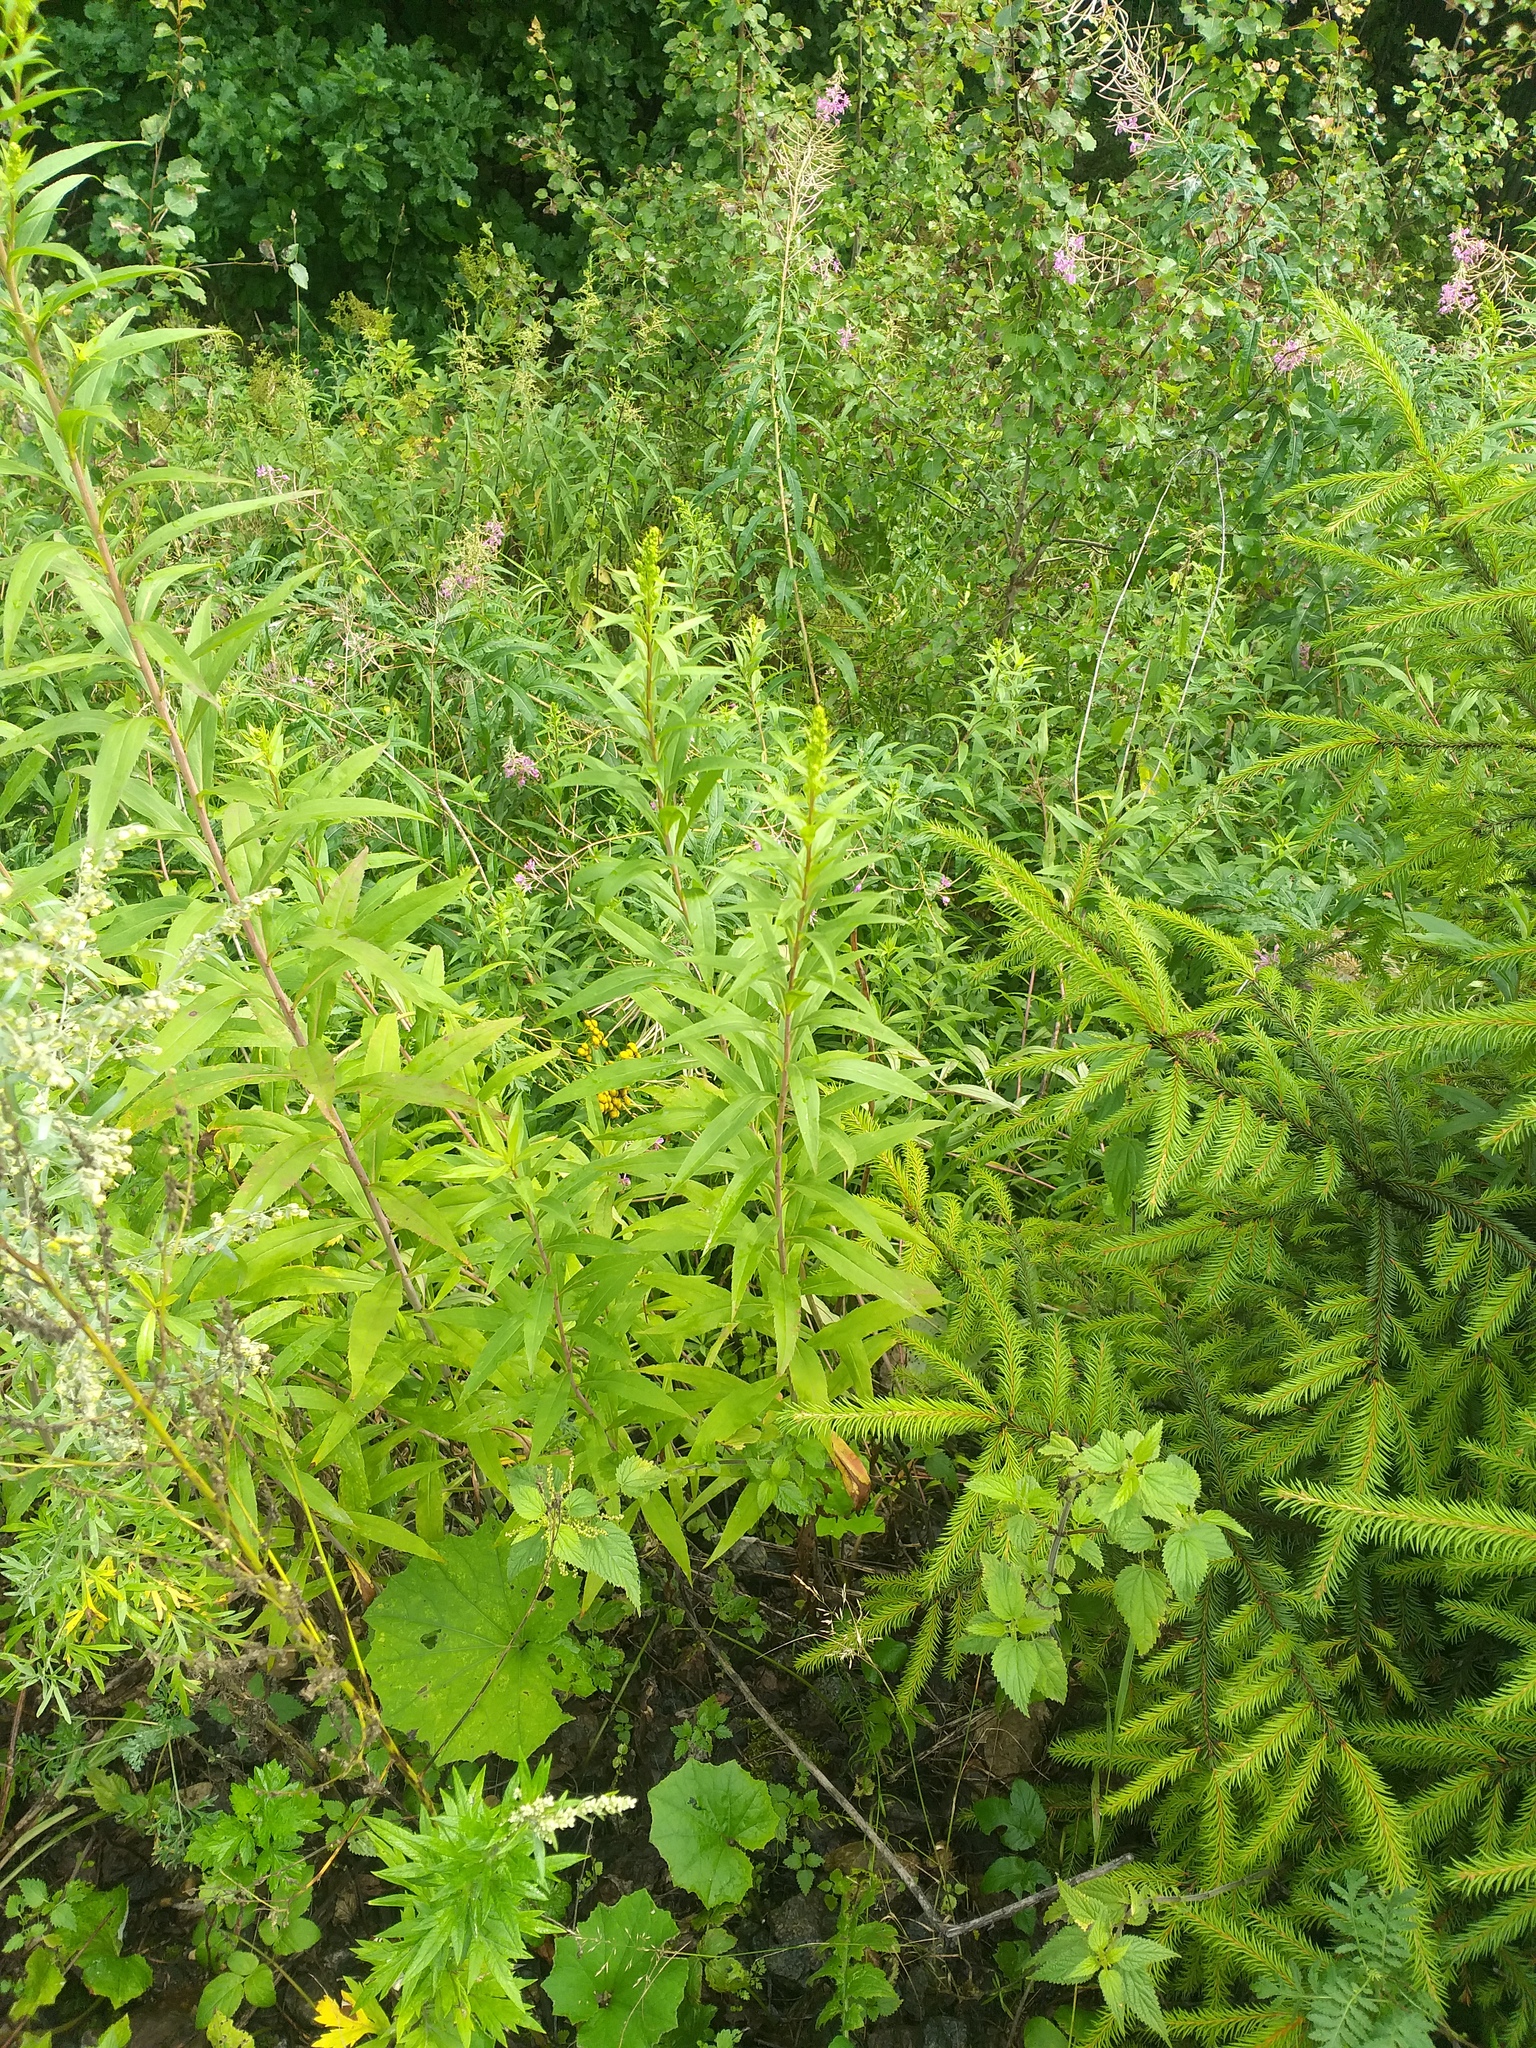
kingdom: Plantae
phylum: Tracheophyta
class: Magnoliopsida
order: Asterales
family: Asteraceae
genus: Solidago
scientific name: Solidago gigantea
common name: Giant goldenrod
